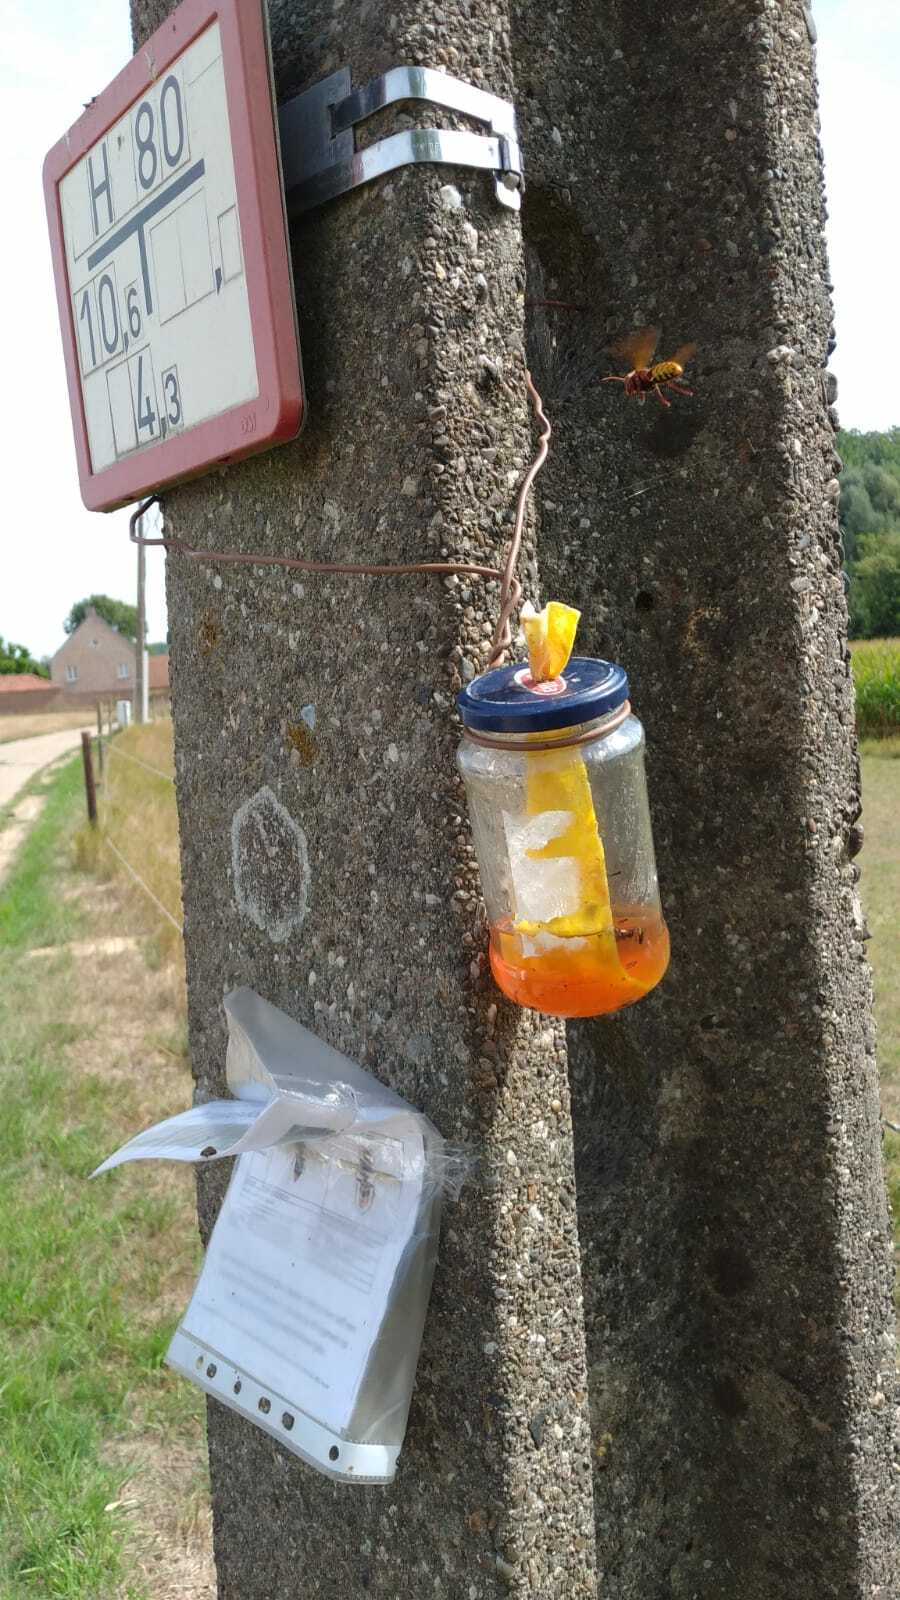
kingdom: Animalia
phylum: Arthropoda
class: Insecta
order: Hymenoptera
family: Vespidae
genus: Vespa
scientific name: Vespa crabro
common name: Hornet
